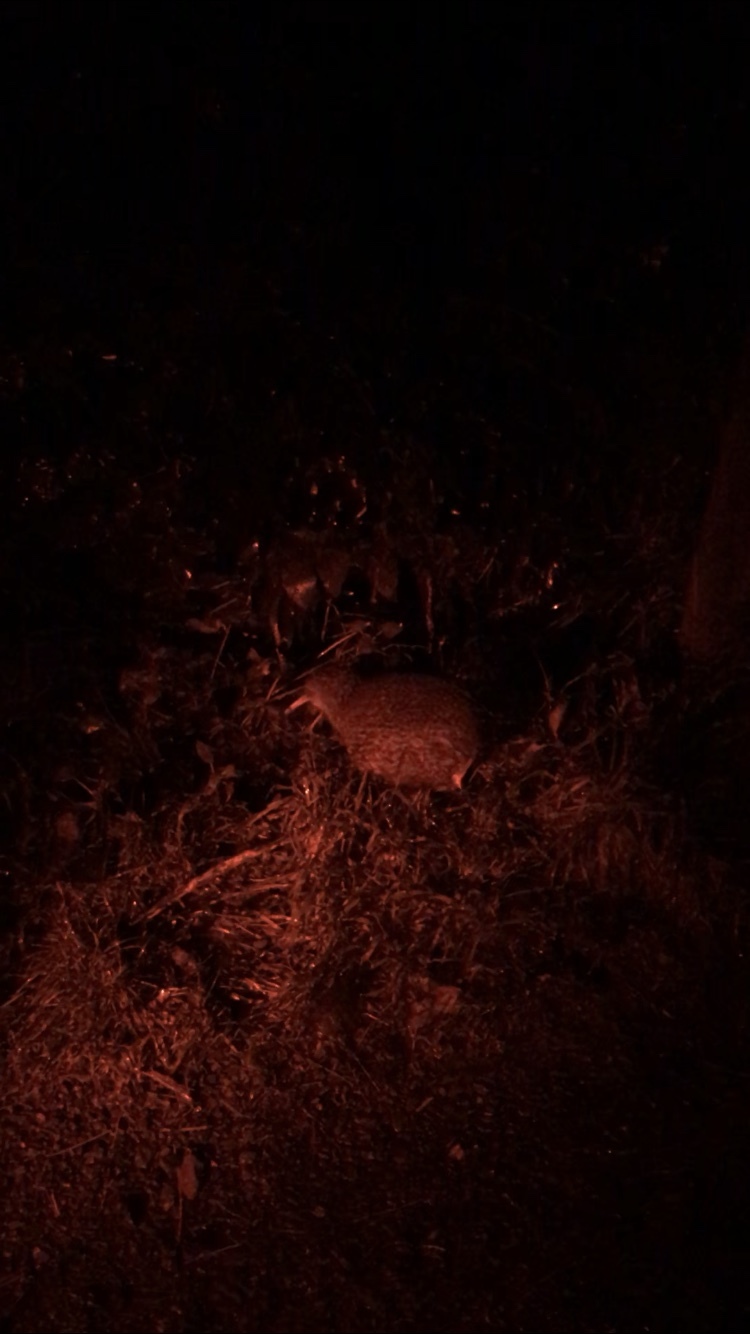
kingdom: Animalia
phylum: Chordata
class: Aves
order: Apterygiformes
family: Apterygidae
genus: Apteryx
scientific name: Apteryx owenii
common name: Little spotted kiwi
